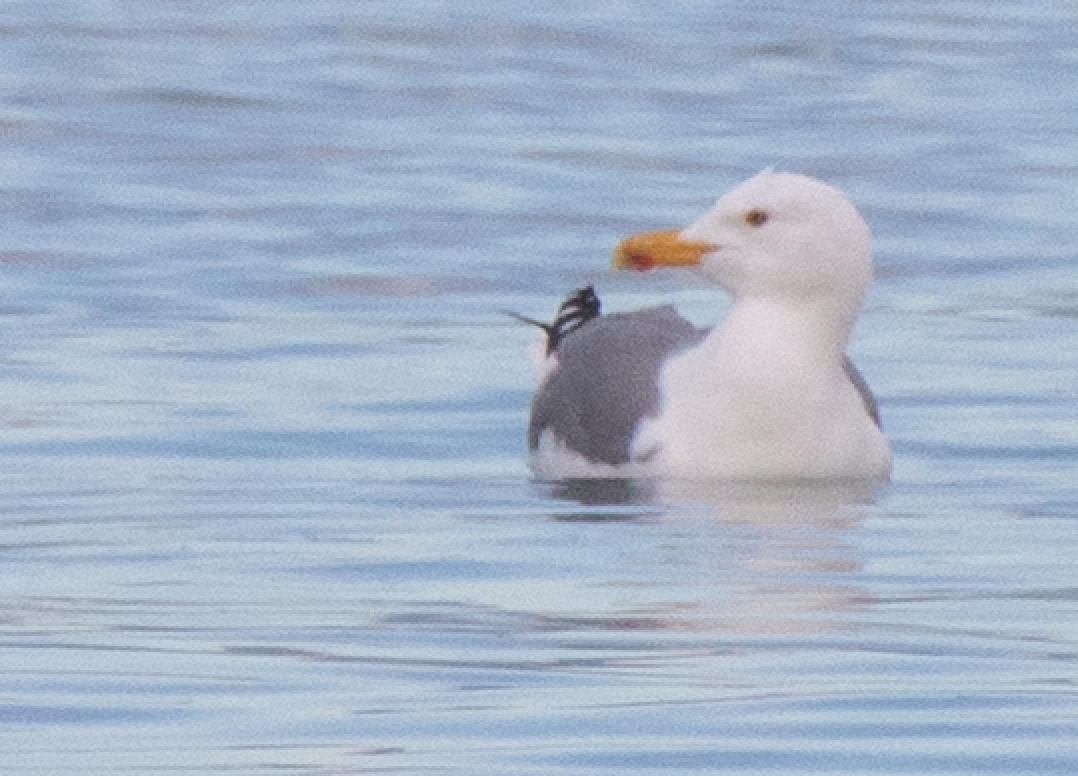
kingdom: Animalia
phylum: Chordata
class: Aves
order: Charadriiformes
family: Laridae
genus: Larus
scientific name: Larus michahellis
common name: Yellow-legged gull
